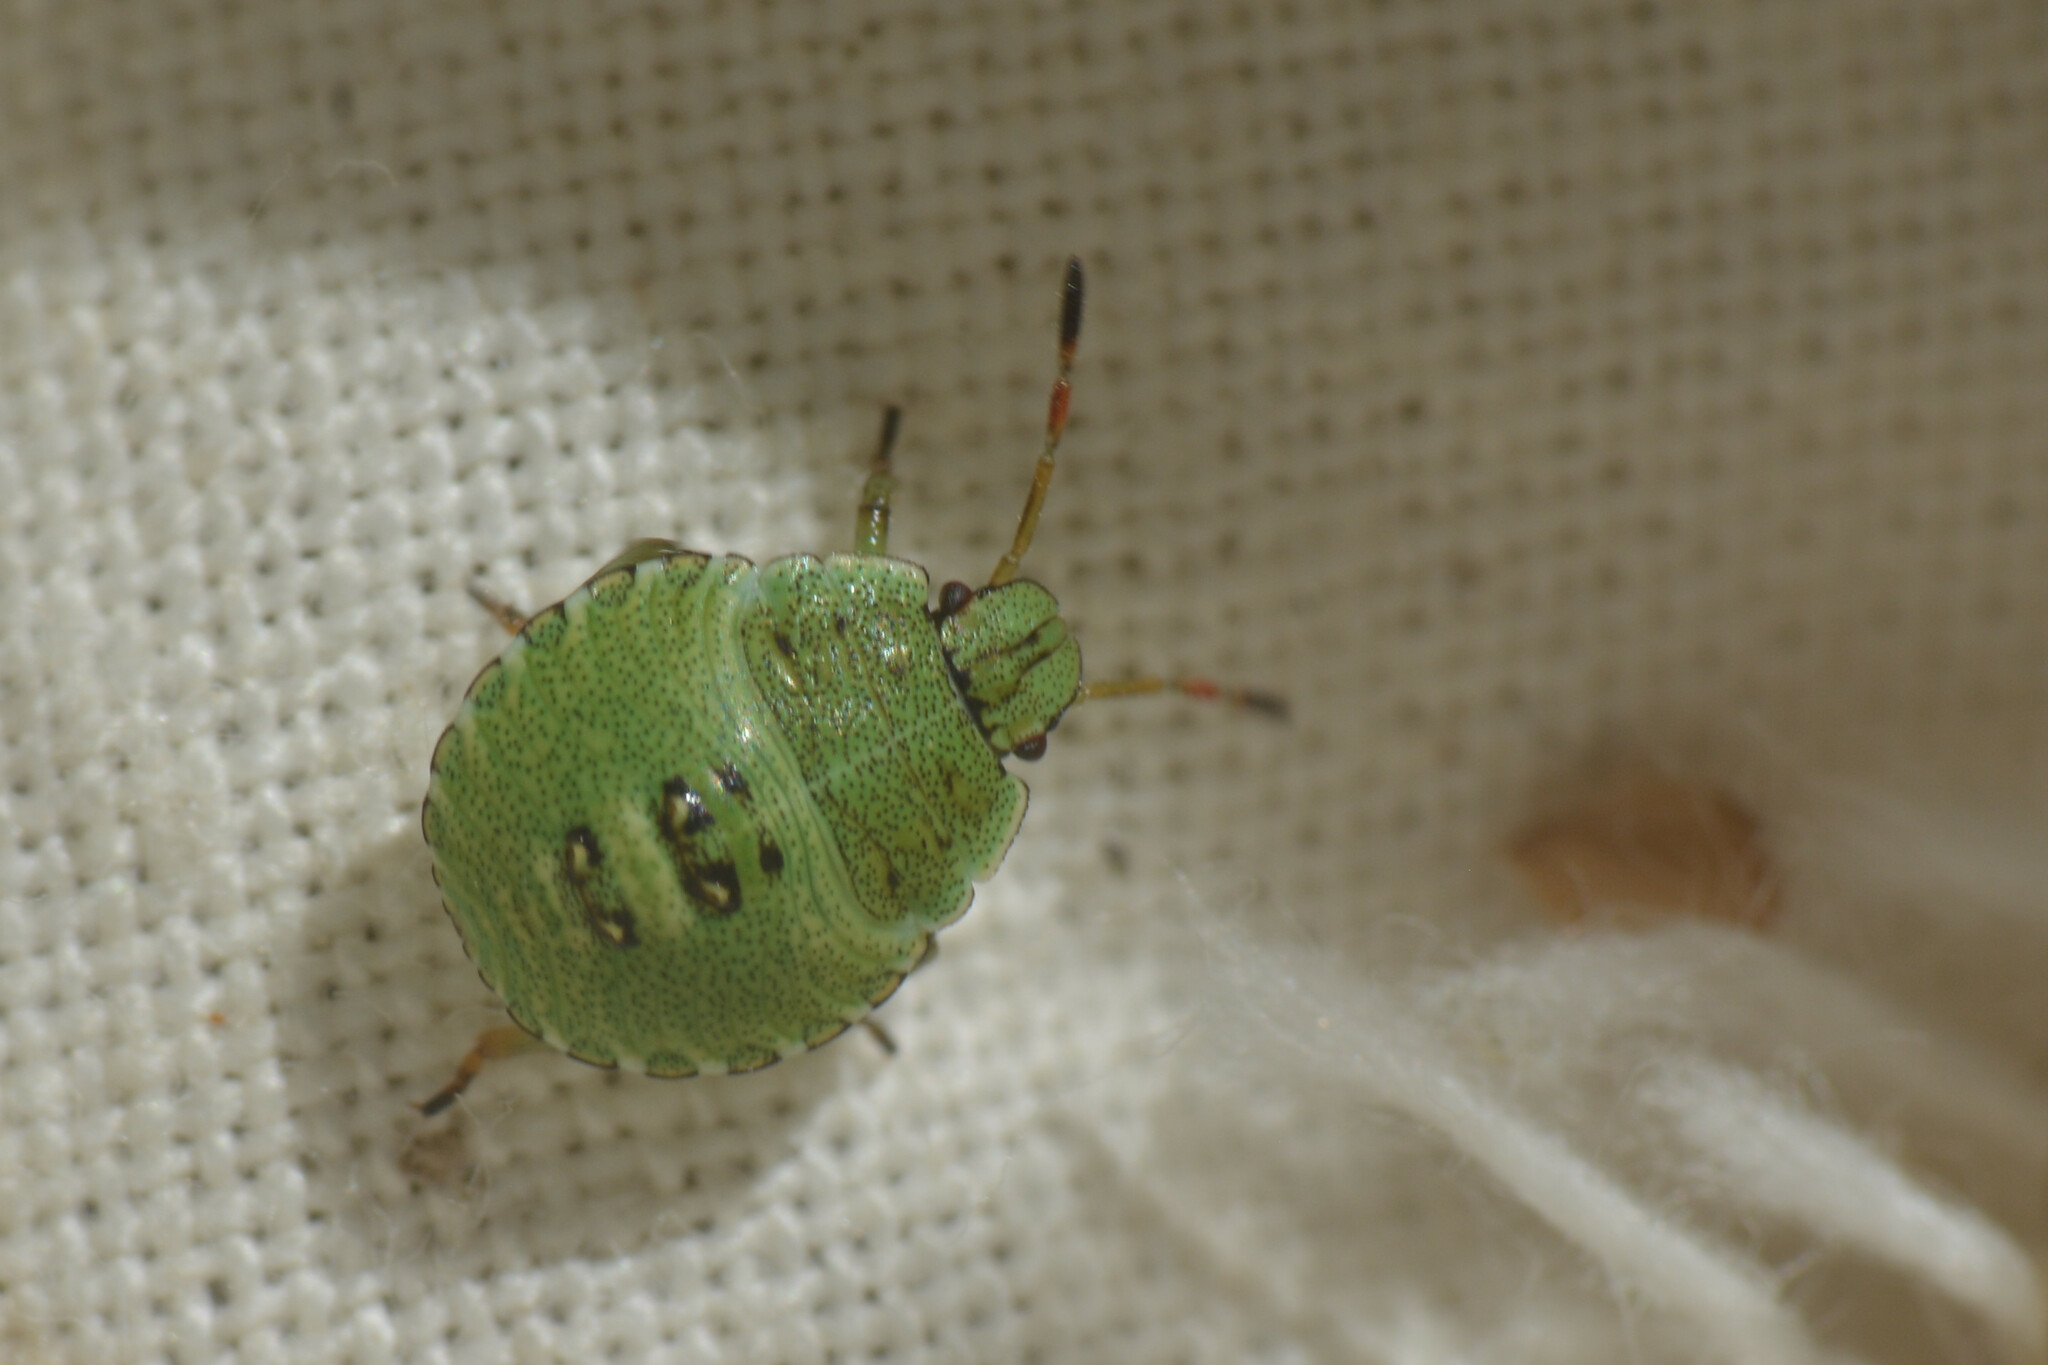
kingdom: Animalia
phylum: Arthropoda
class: Insecta
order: Hemiptera
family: Pentatomidae
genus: Palomena
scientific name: Palomena prasina
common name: Green shieldbug
